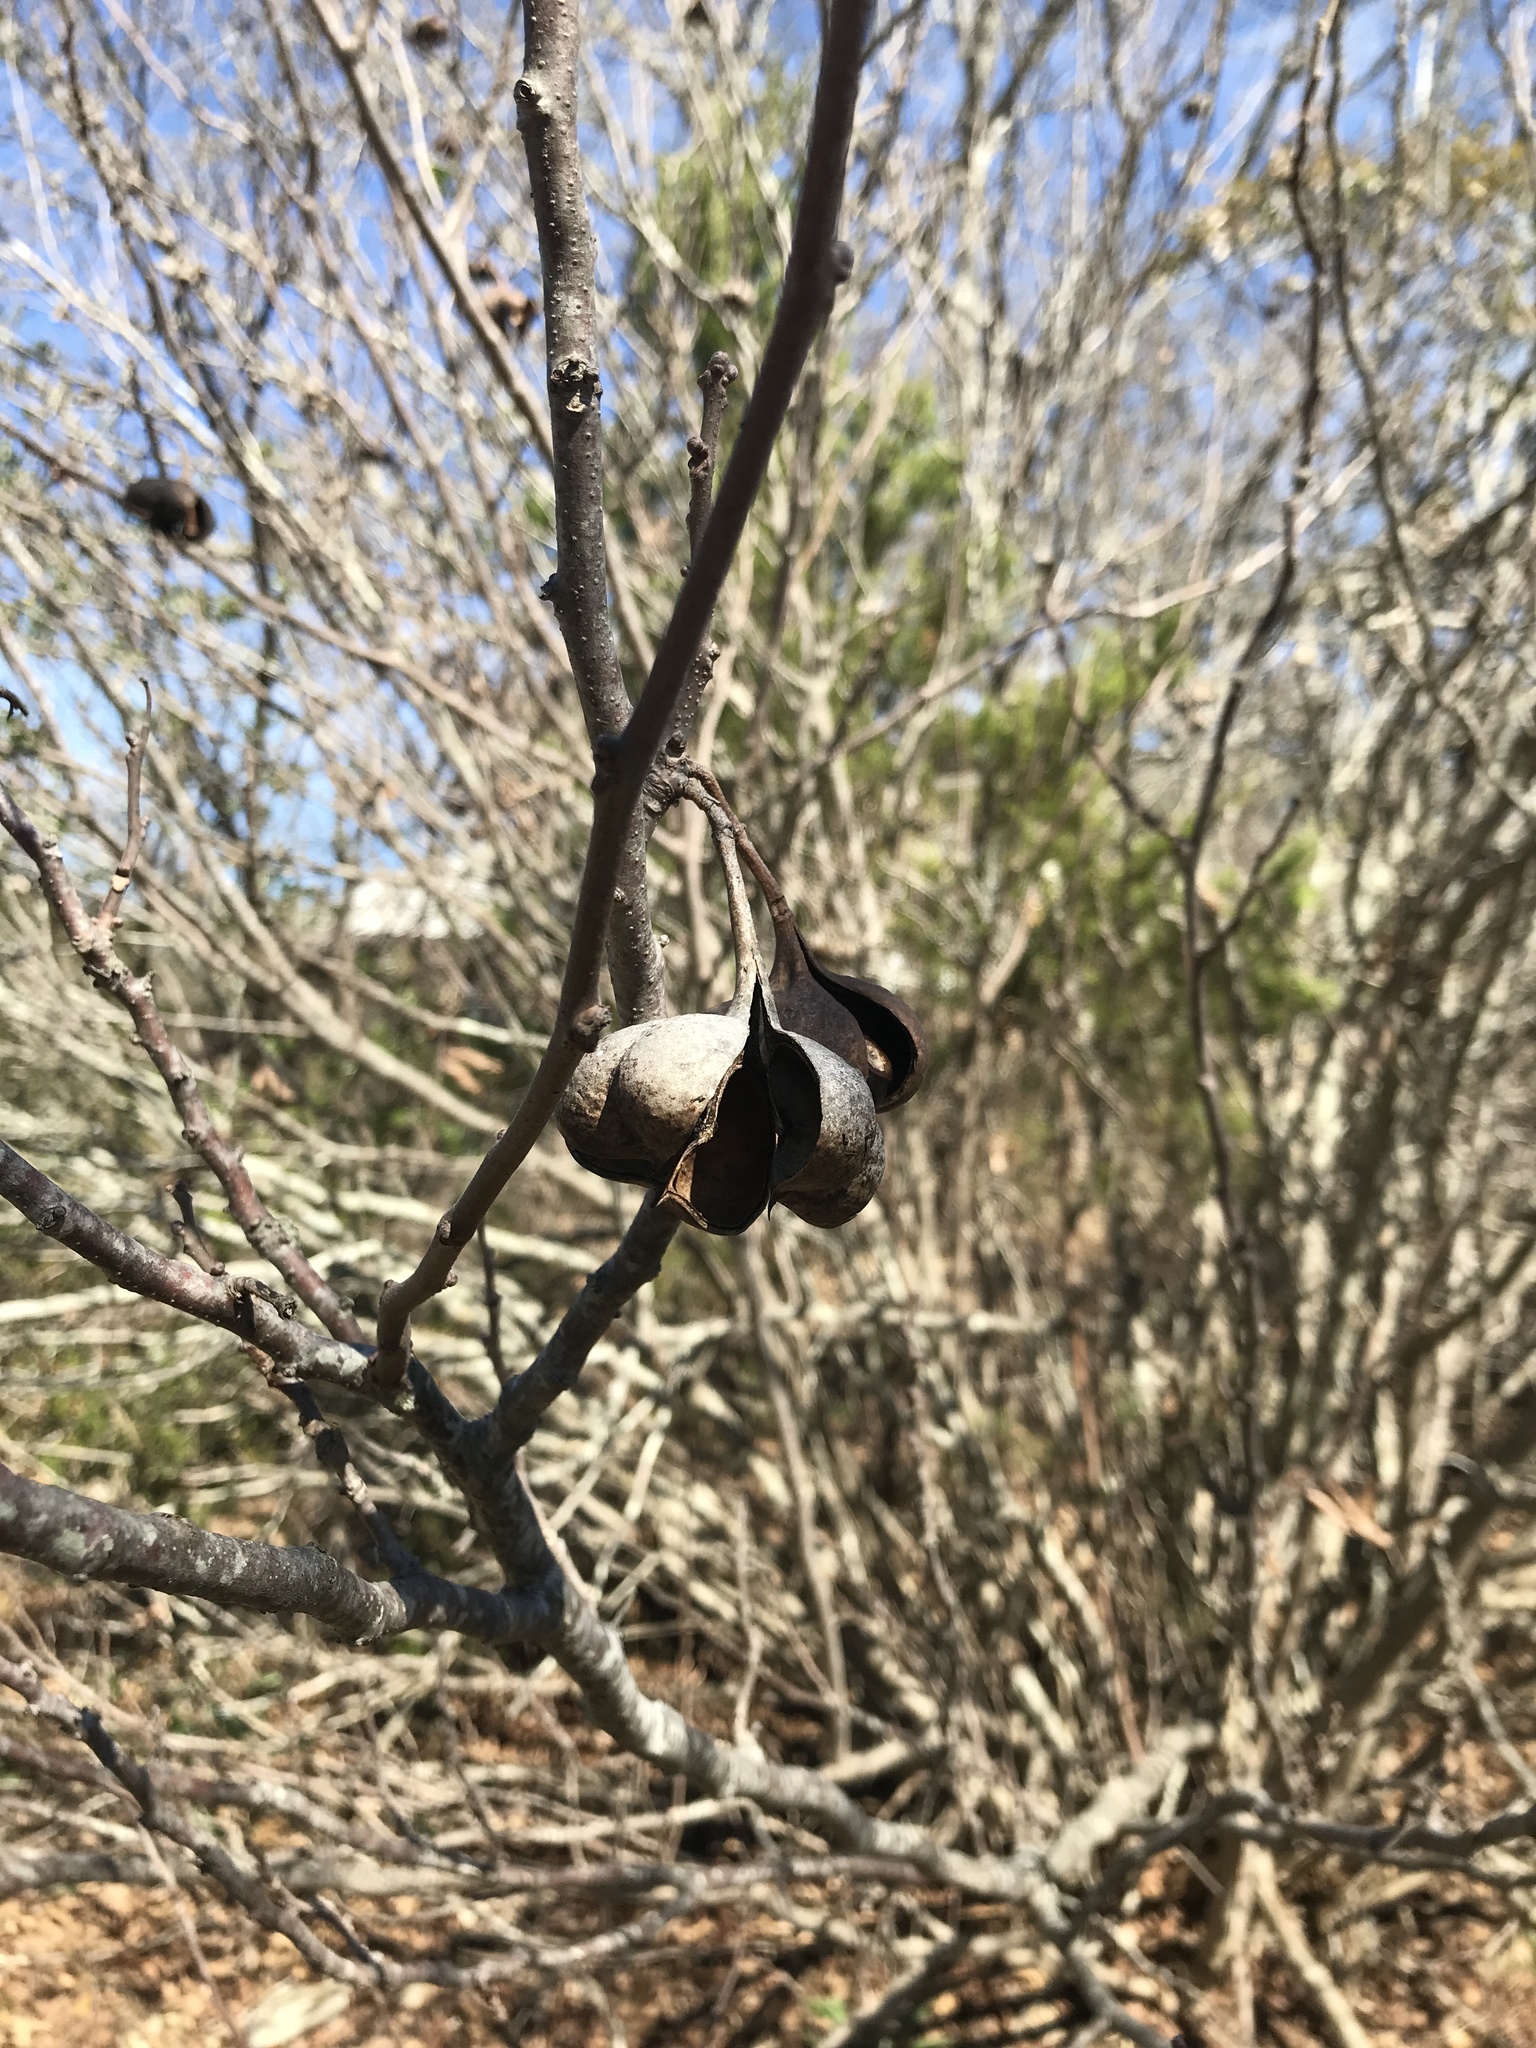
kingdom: Plantae
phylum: Tracheophyta
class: Magnoliopsida
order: Sapindales
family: Sapindaceae
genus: Ungnadia
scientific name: Ungnadia speciosa
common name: Texas-buckeye
